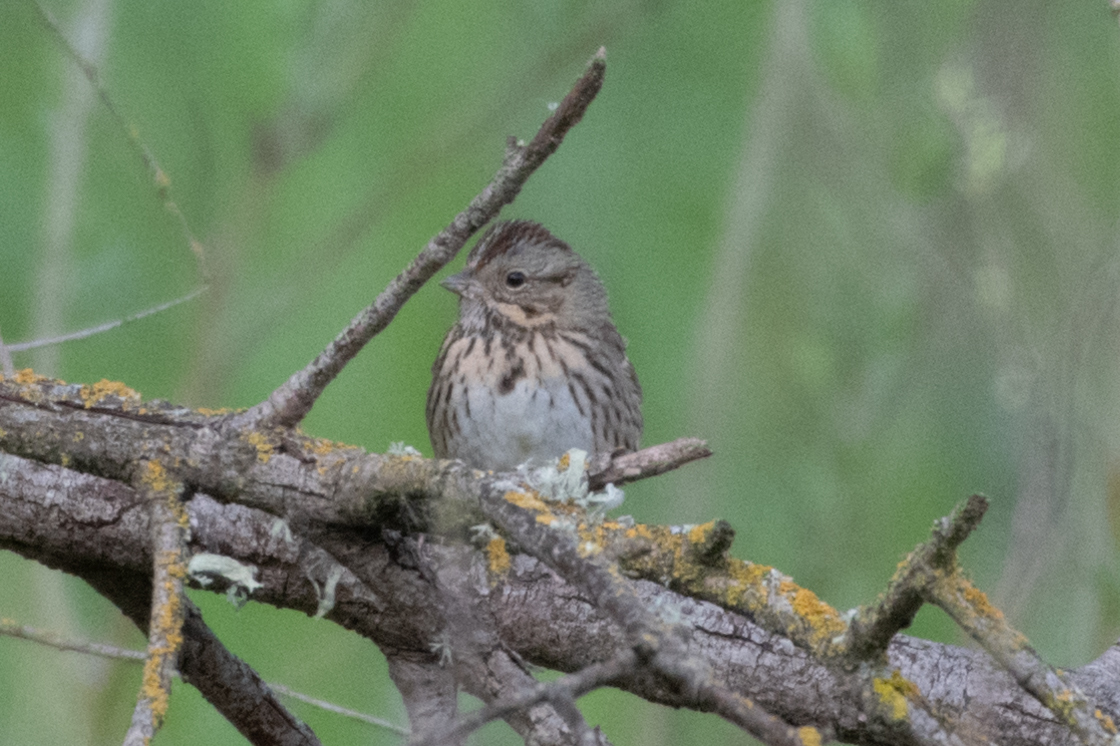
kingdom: Animalia
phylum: Chordata
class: Aves
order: Passeriformes
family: Passerellidae
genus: Melospiza
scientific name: Melospiza lincolnii
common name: Lincoln's sparrow
